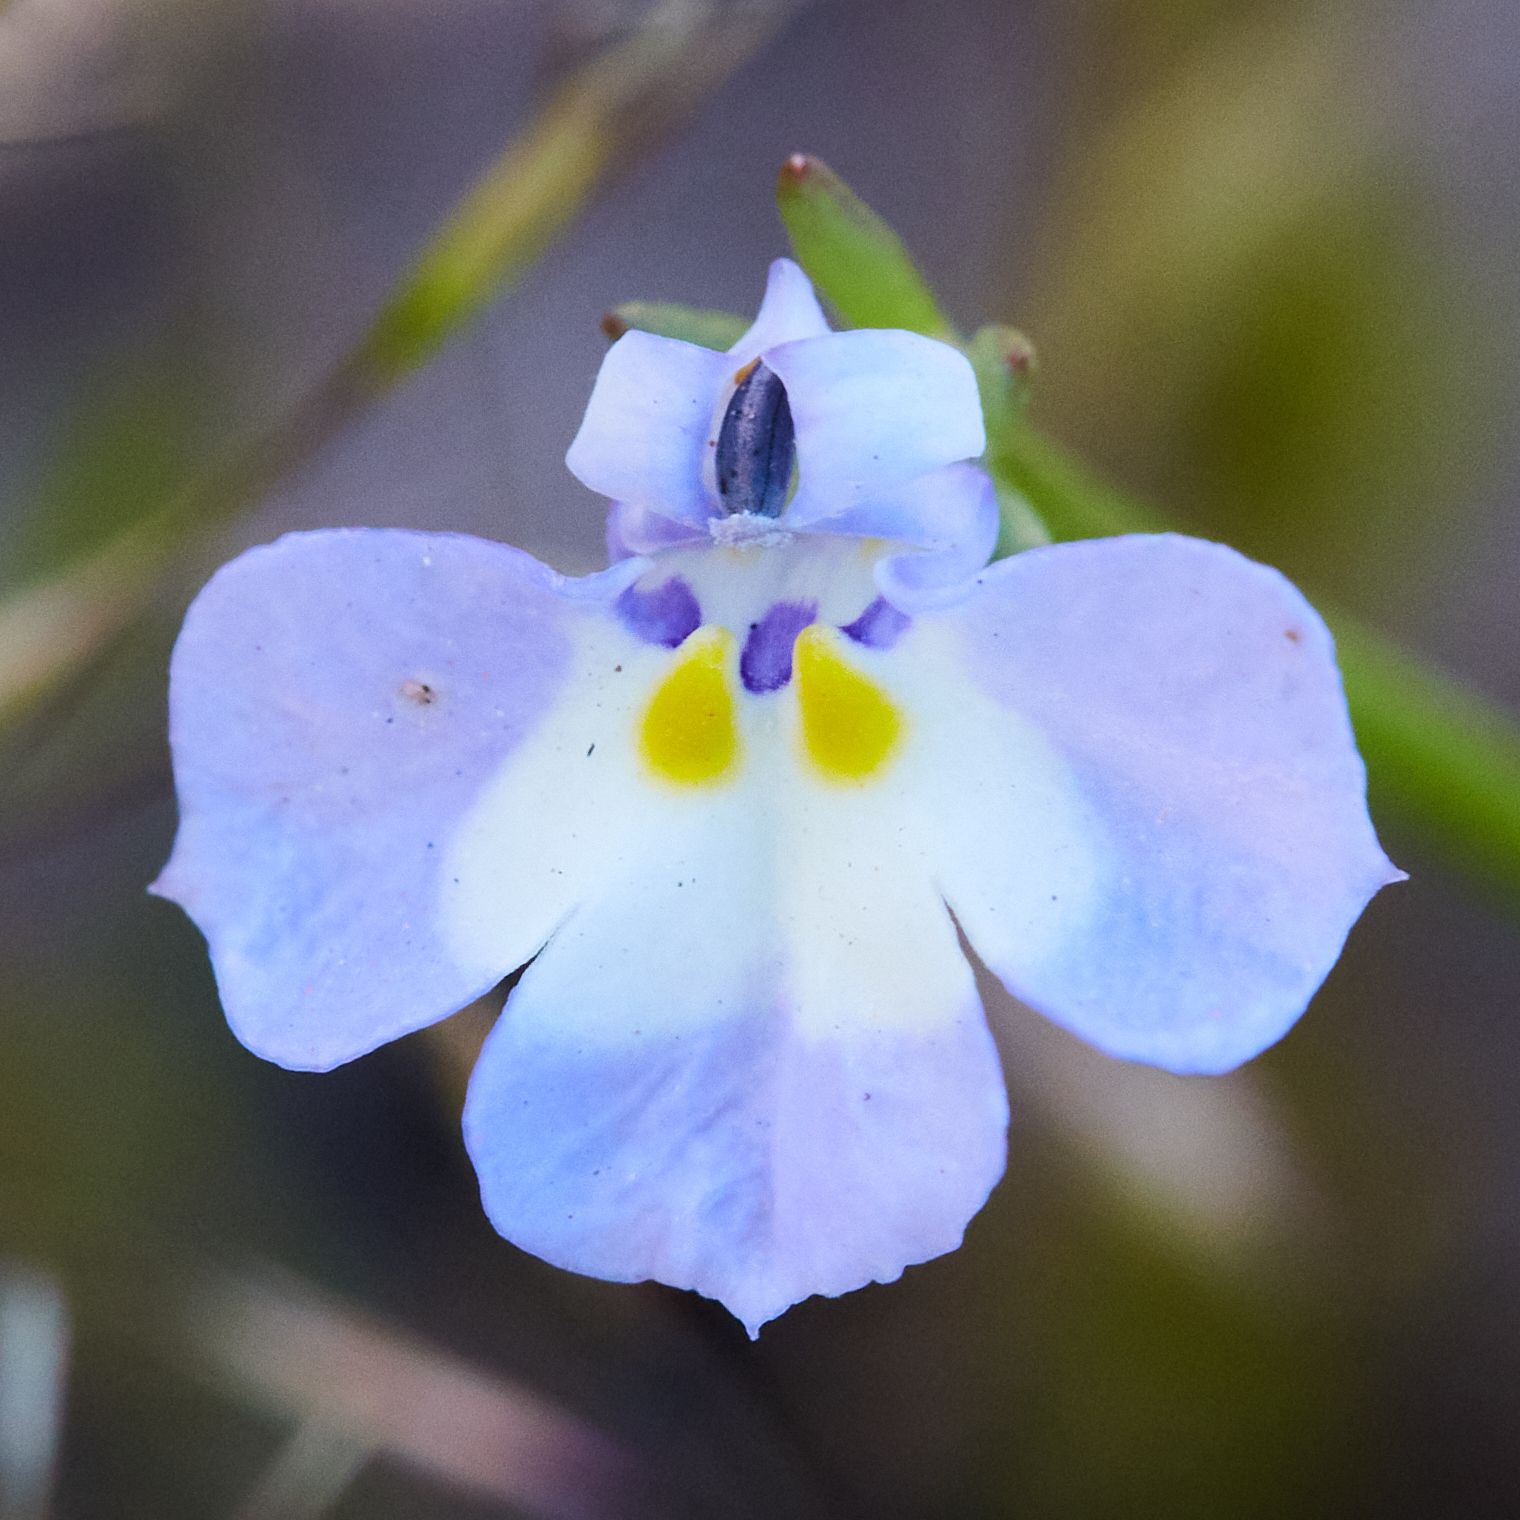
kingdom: Plantae
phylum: Tracheophyta
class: Magnoliopsida
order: Asterales
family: Campanulaceae
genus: Downingia
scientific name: Downingia ornatissima
